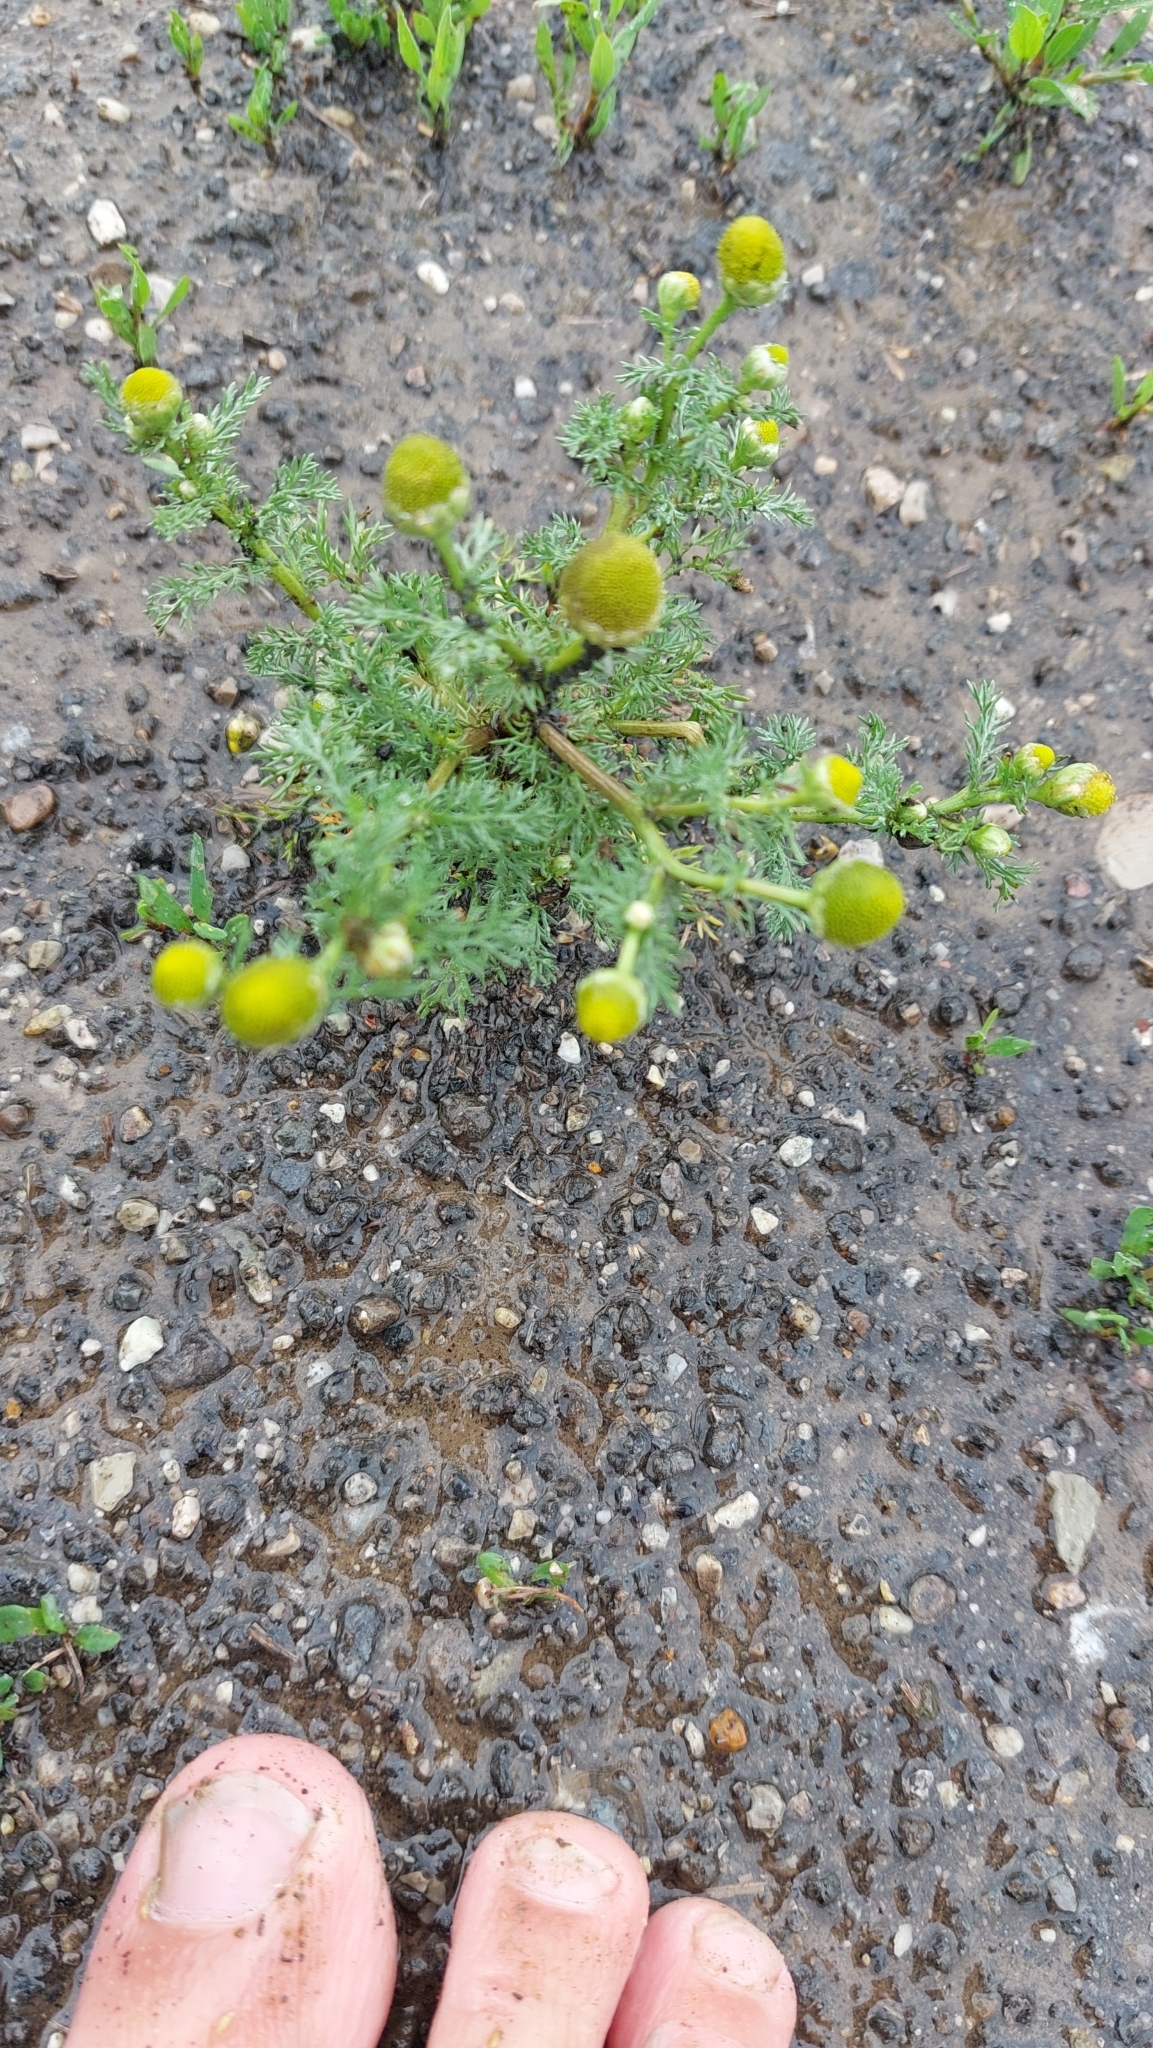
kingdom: Plantae
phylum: Tracheophyta
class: Magnoliopsida
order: Asterales
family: Asteraceae
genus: Matricaria
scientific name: Matricaria discoidea
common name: Disc mayweed
